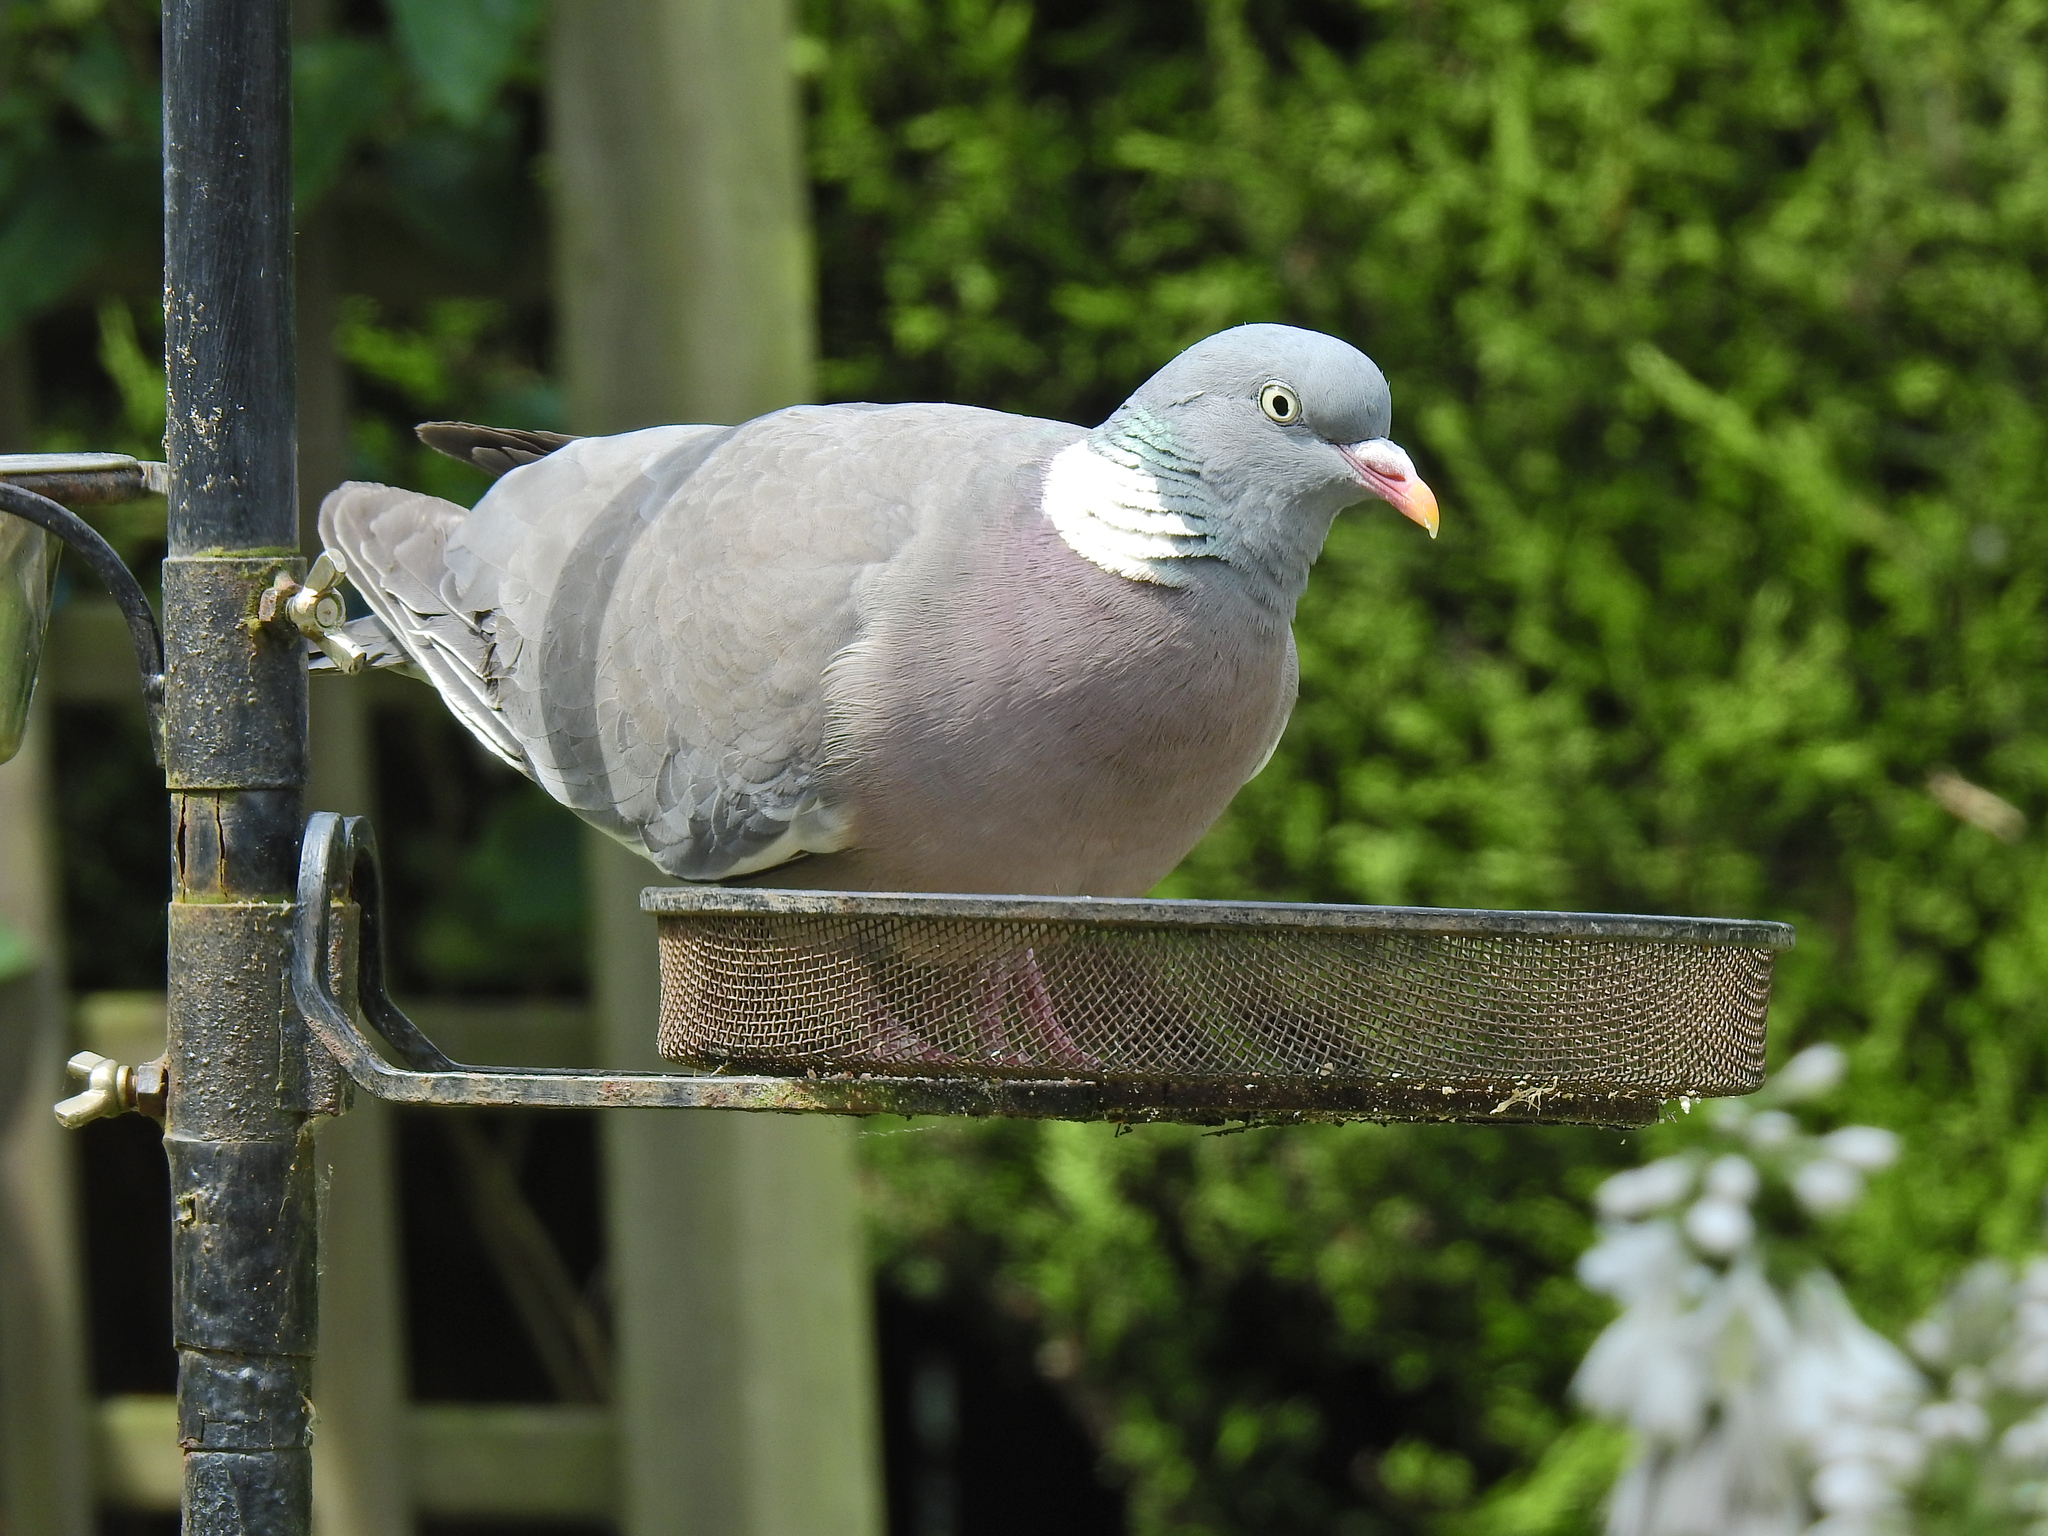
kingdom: Animalia
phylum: Chordata
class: Aves
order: Columbiformes
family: Columbidae
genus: Columba
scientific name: Columba palumbus
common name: Common wood pigeon
